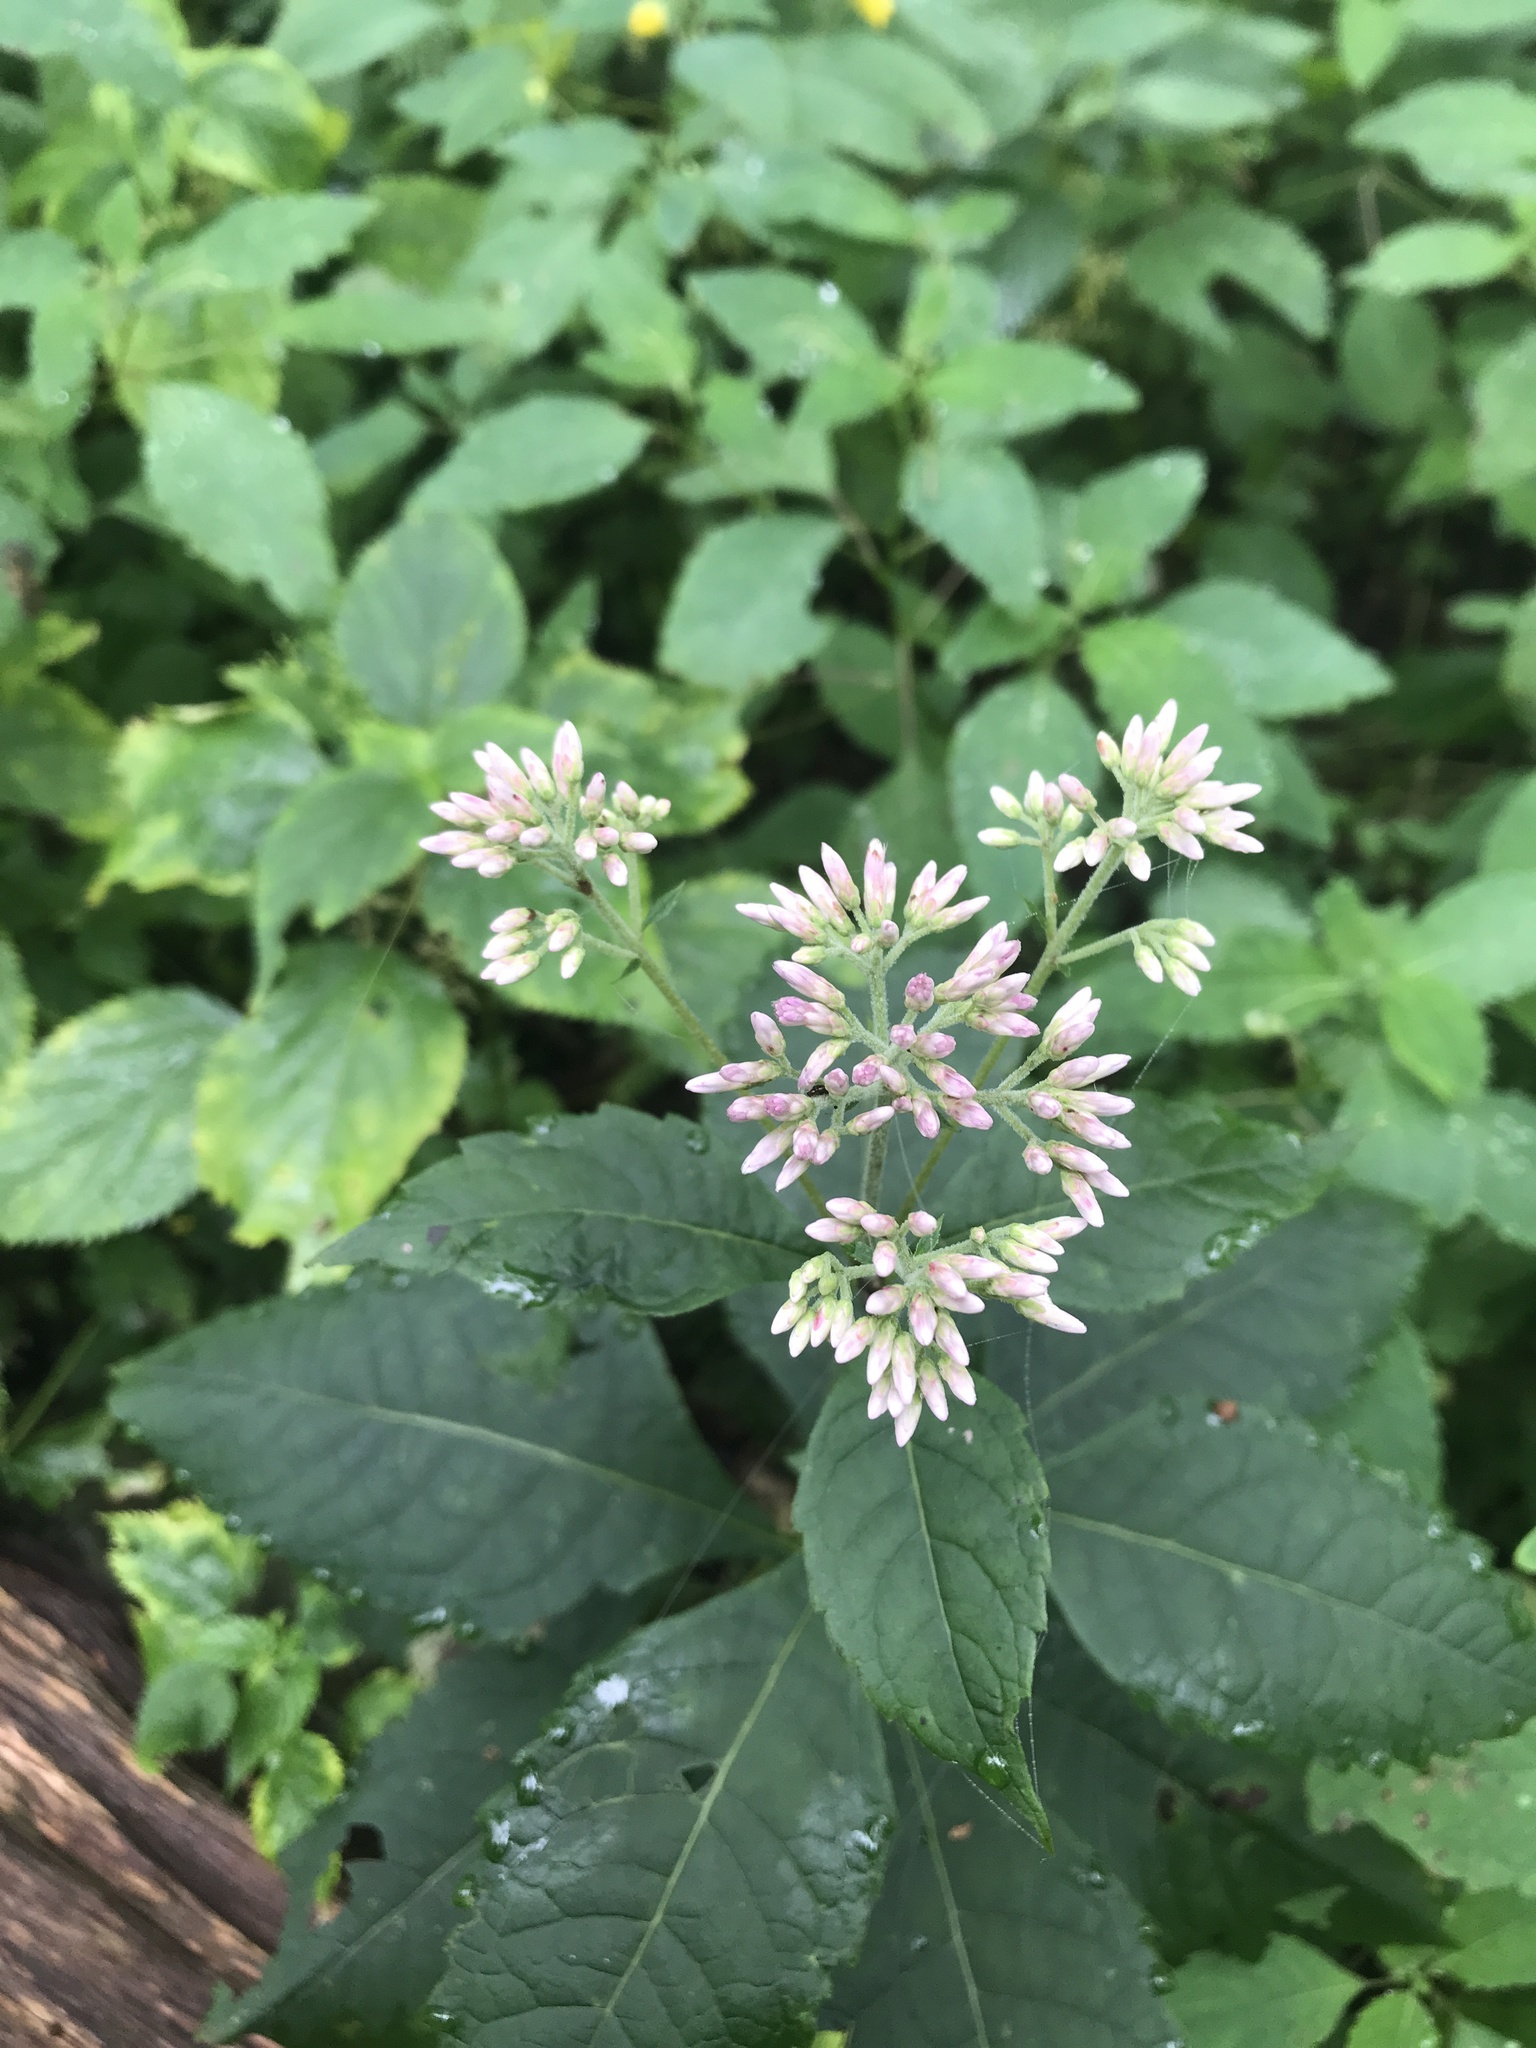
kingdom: Plantae
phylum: Tracheophyta
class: Magnoliopsida
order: Asterales
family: Asteraceae
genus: Eutrochium
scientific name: Eutrochium purpureum
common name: Gravelroot
